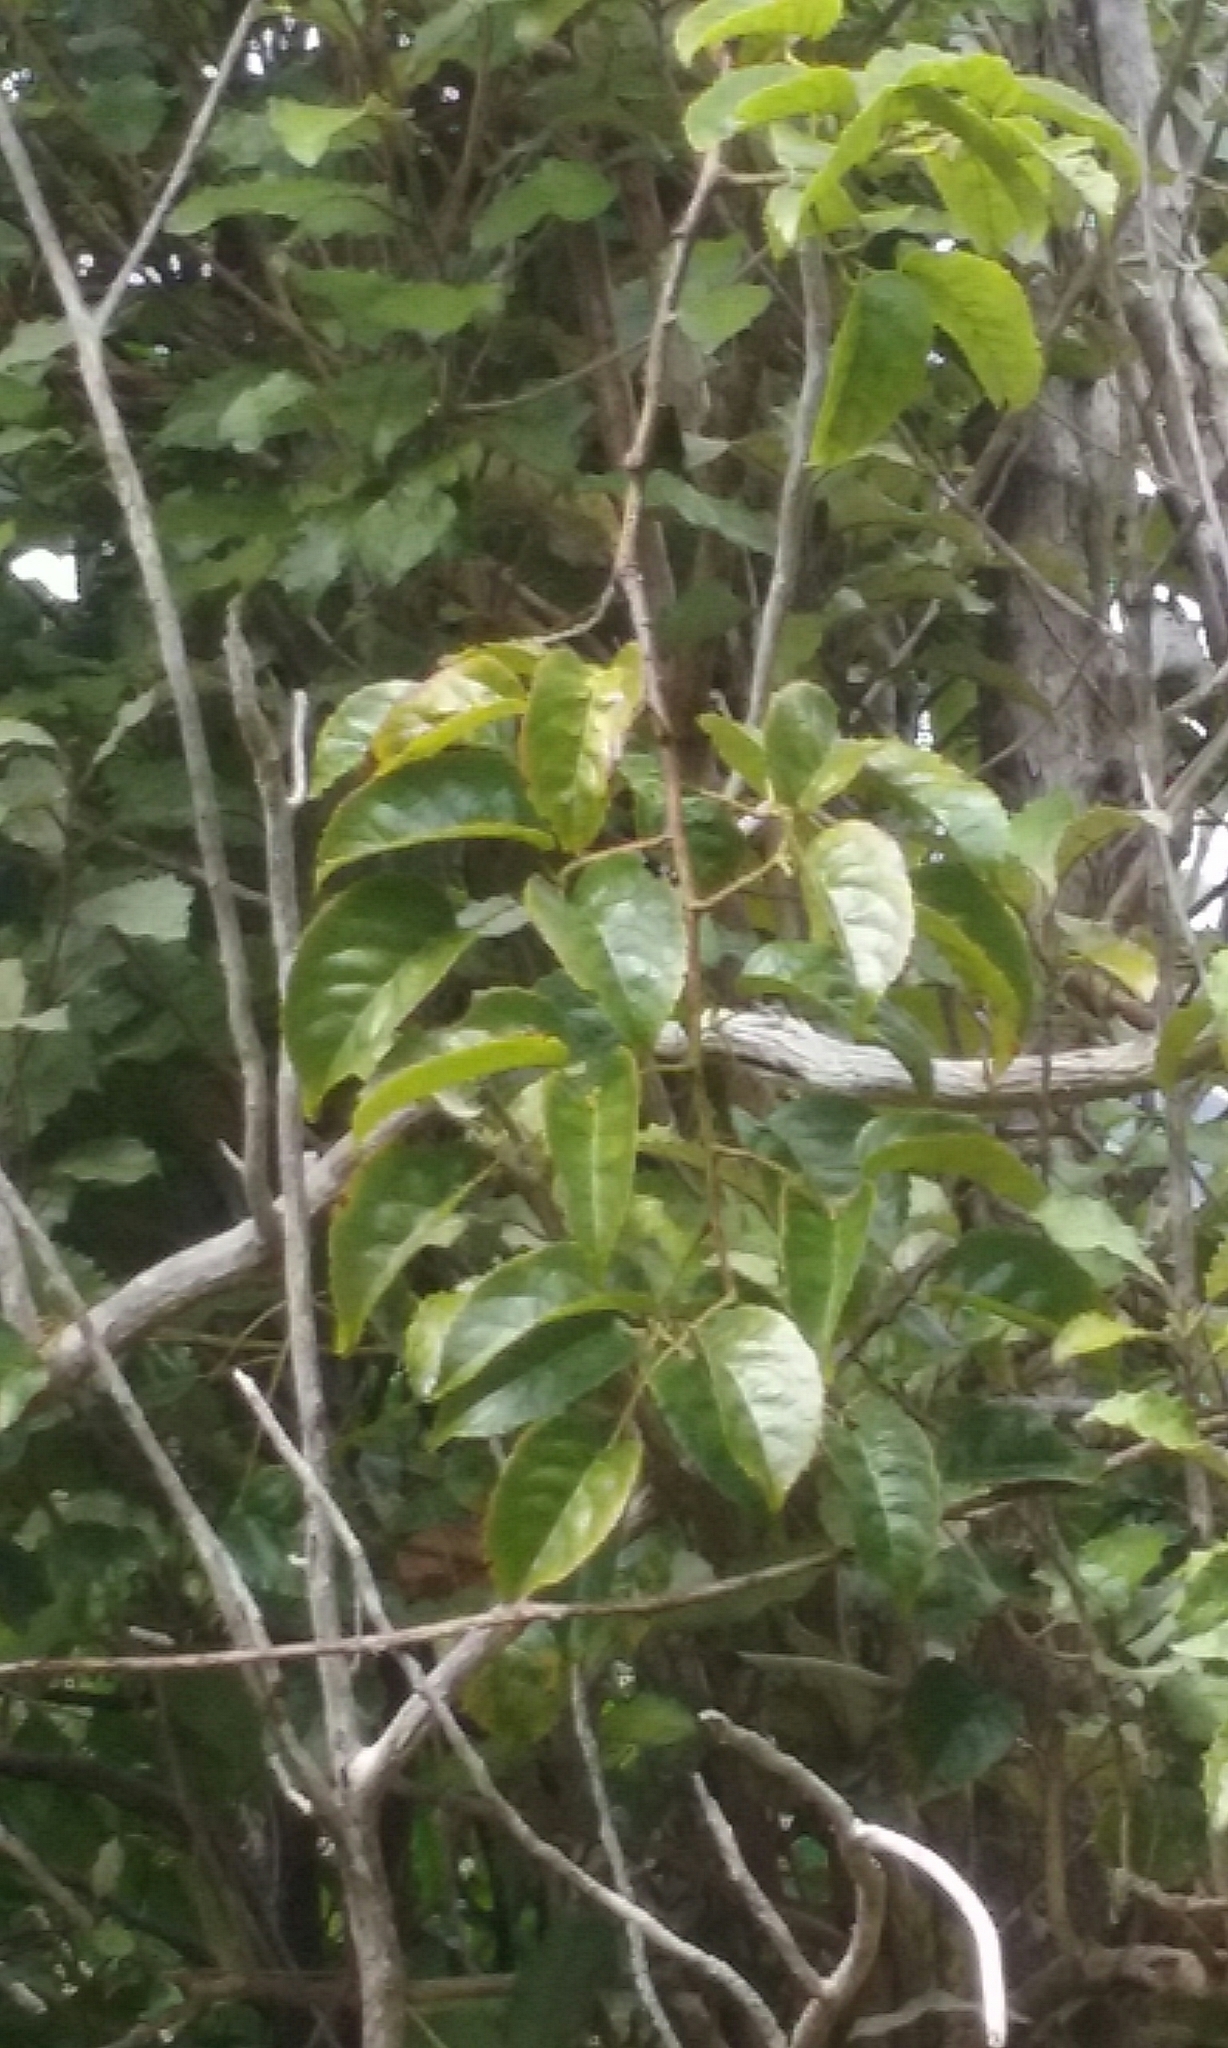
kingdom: Plantae
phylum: Tracheophyta
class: Magnoliopsida
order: Rosales
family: Rosaceae
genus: Rubus
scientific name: Rubus cissoides
